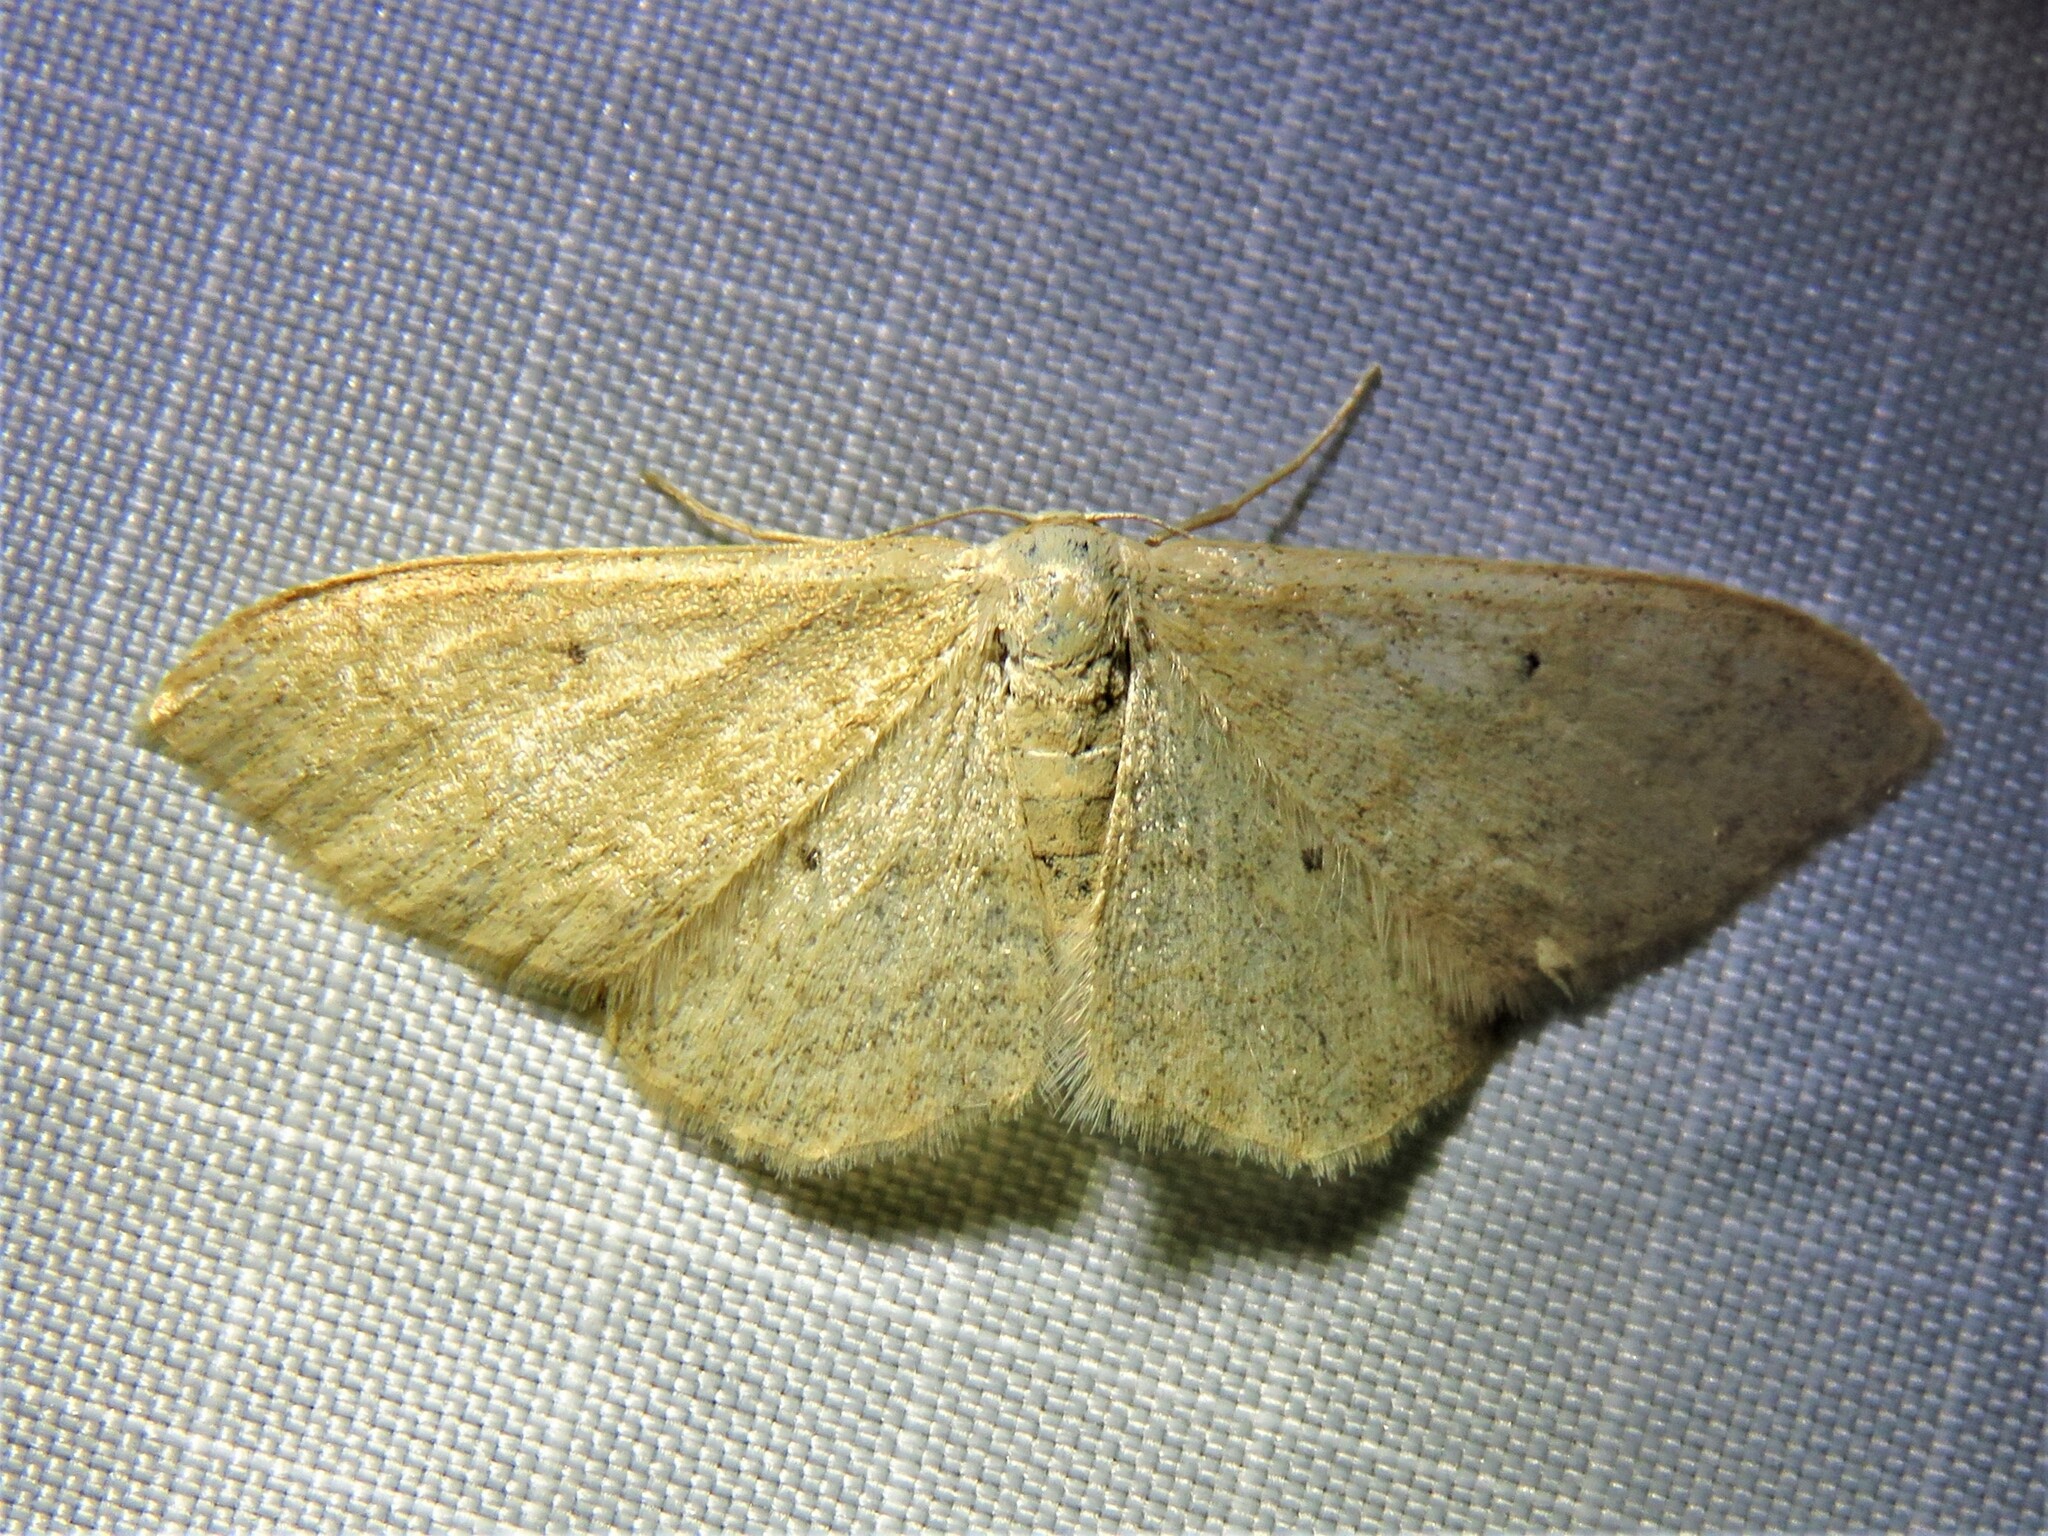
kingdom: Animalia
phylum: Arthropoda
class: Insecta
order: Lepidoptera
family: Geometridae
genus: Idaea
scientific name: Idaea straminata
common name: Plain wave
